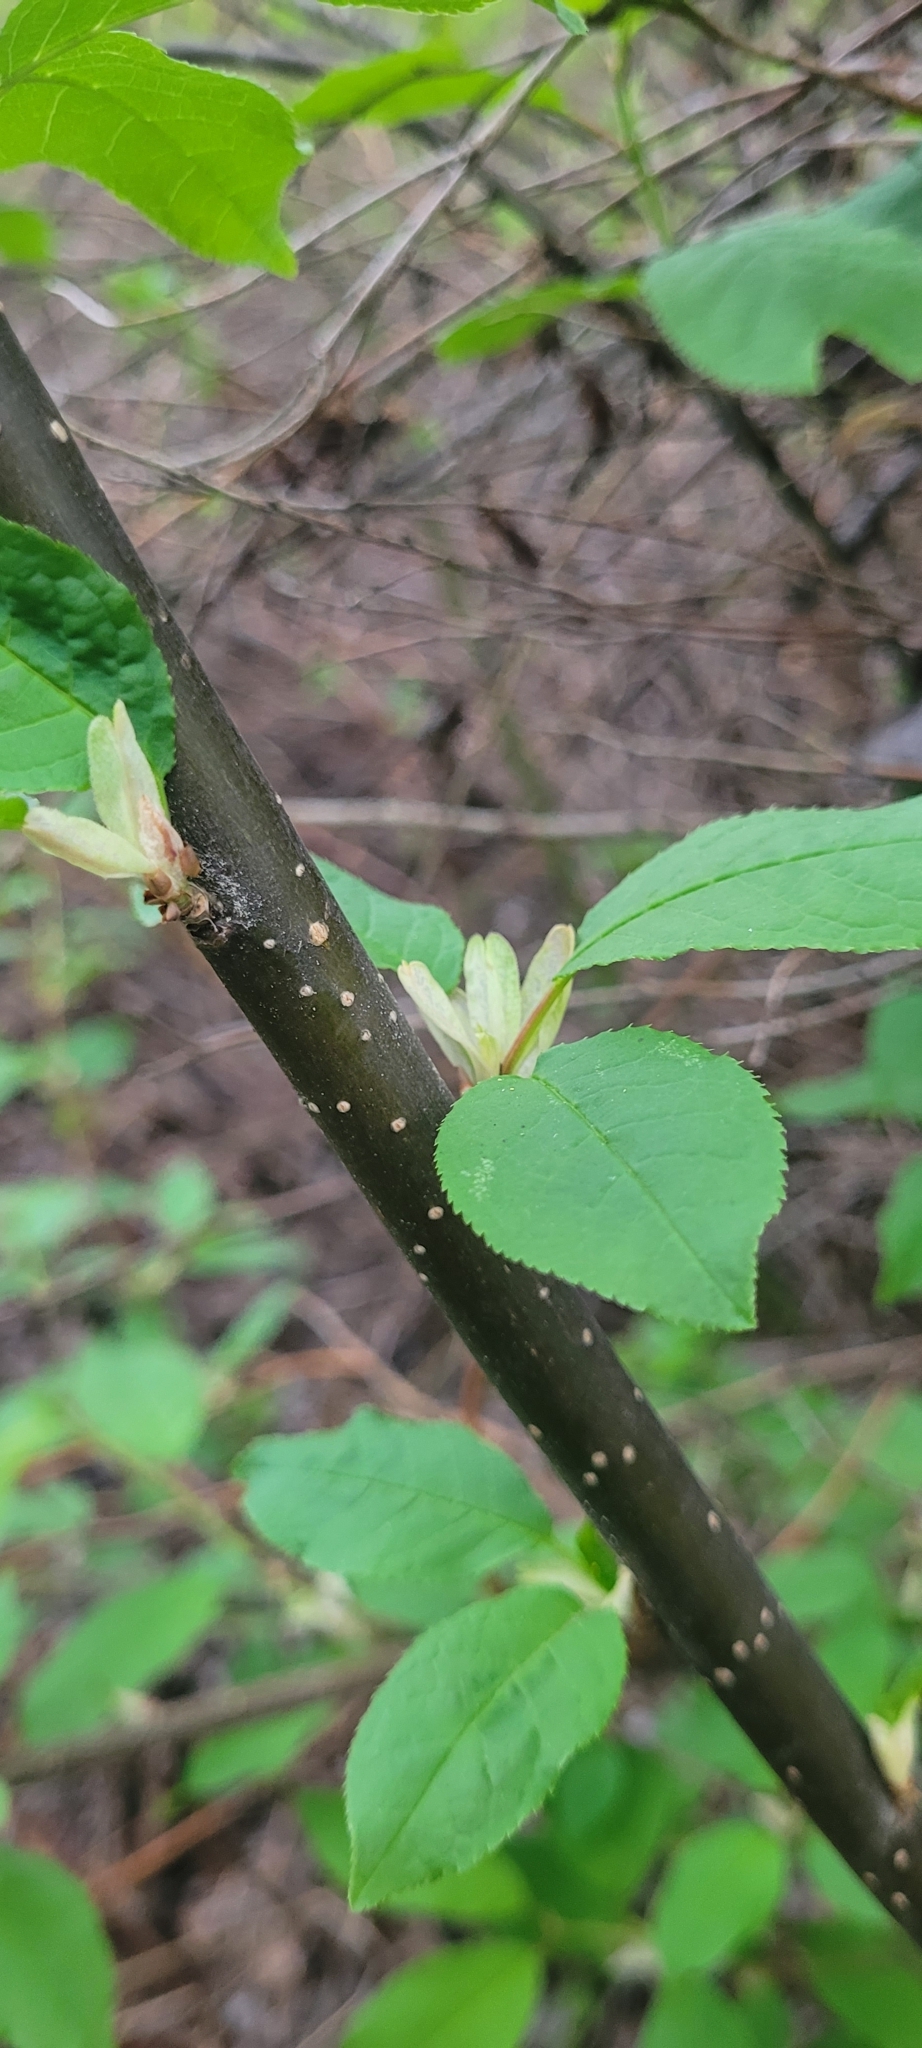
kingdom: Plantae
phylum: Tracheophyta
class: Magnoliopsida
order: Rosales
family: Rosaceae
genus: Prunus
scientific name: Prunus virginiana
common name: Chokecherry
